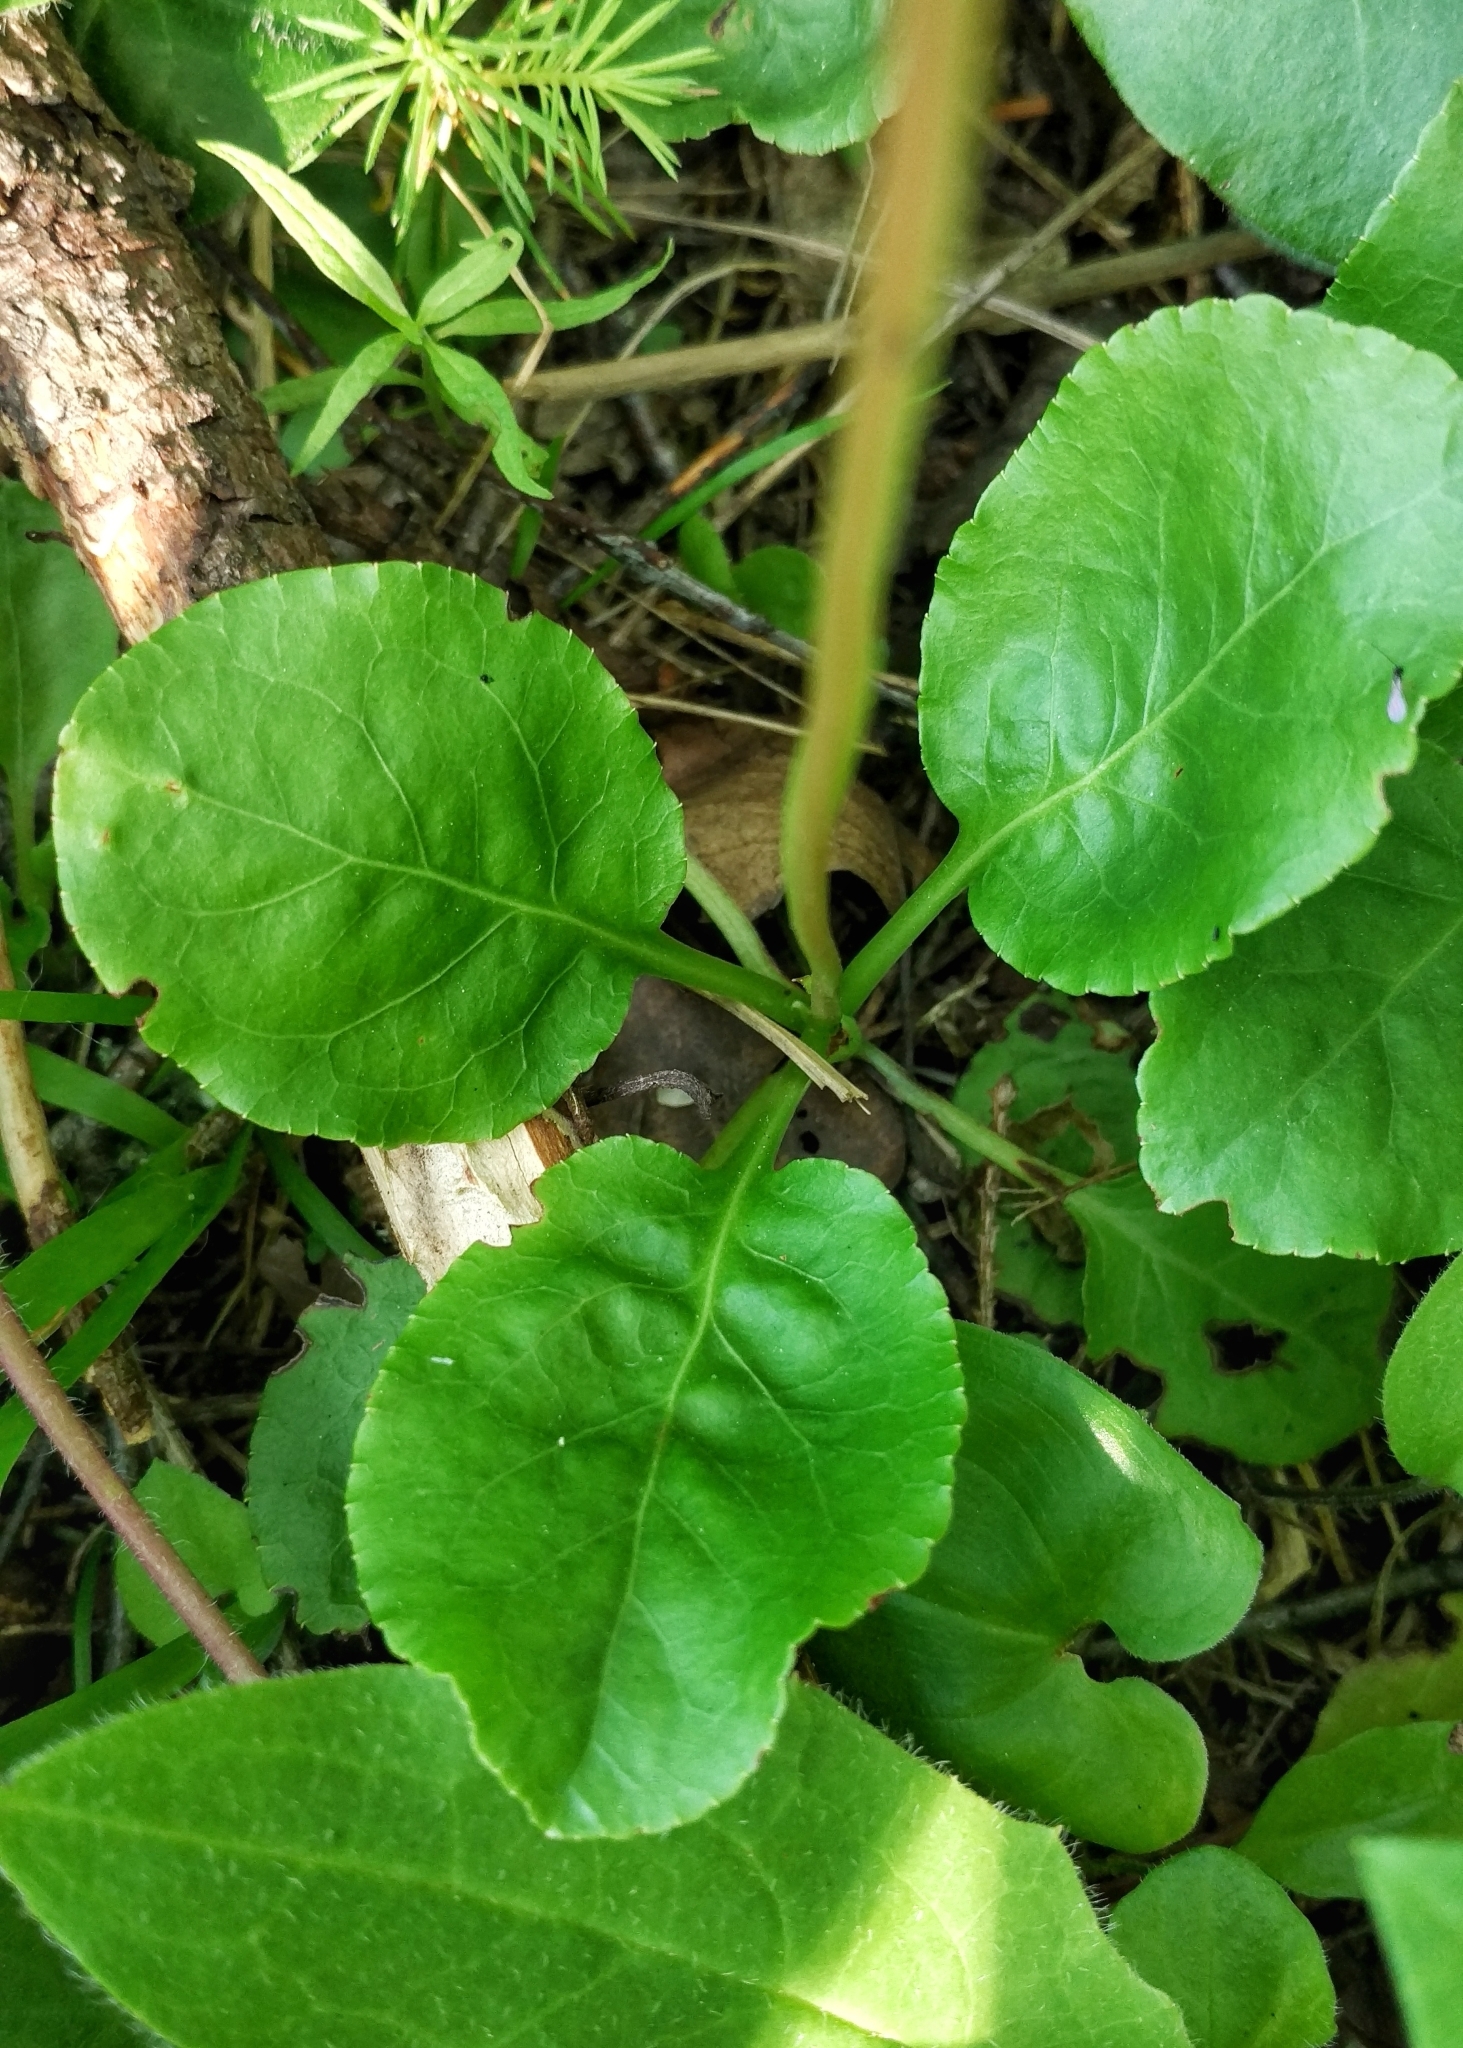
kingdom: Plantae
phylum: Tracheophyta
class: Magnoliopsida
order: Ericales
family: Ericaceae
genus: Pyrola
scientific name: Pyrola minor
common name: Common wintergreen
